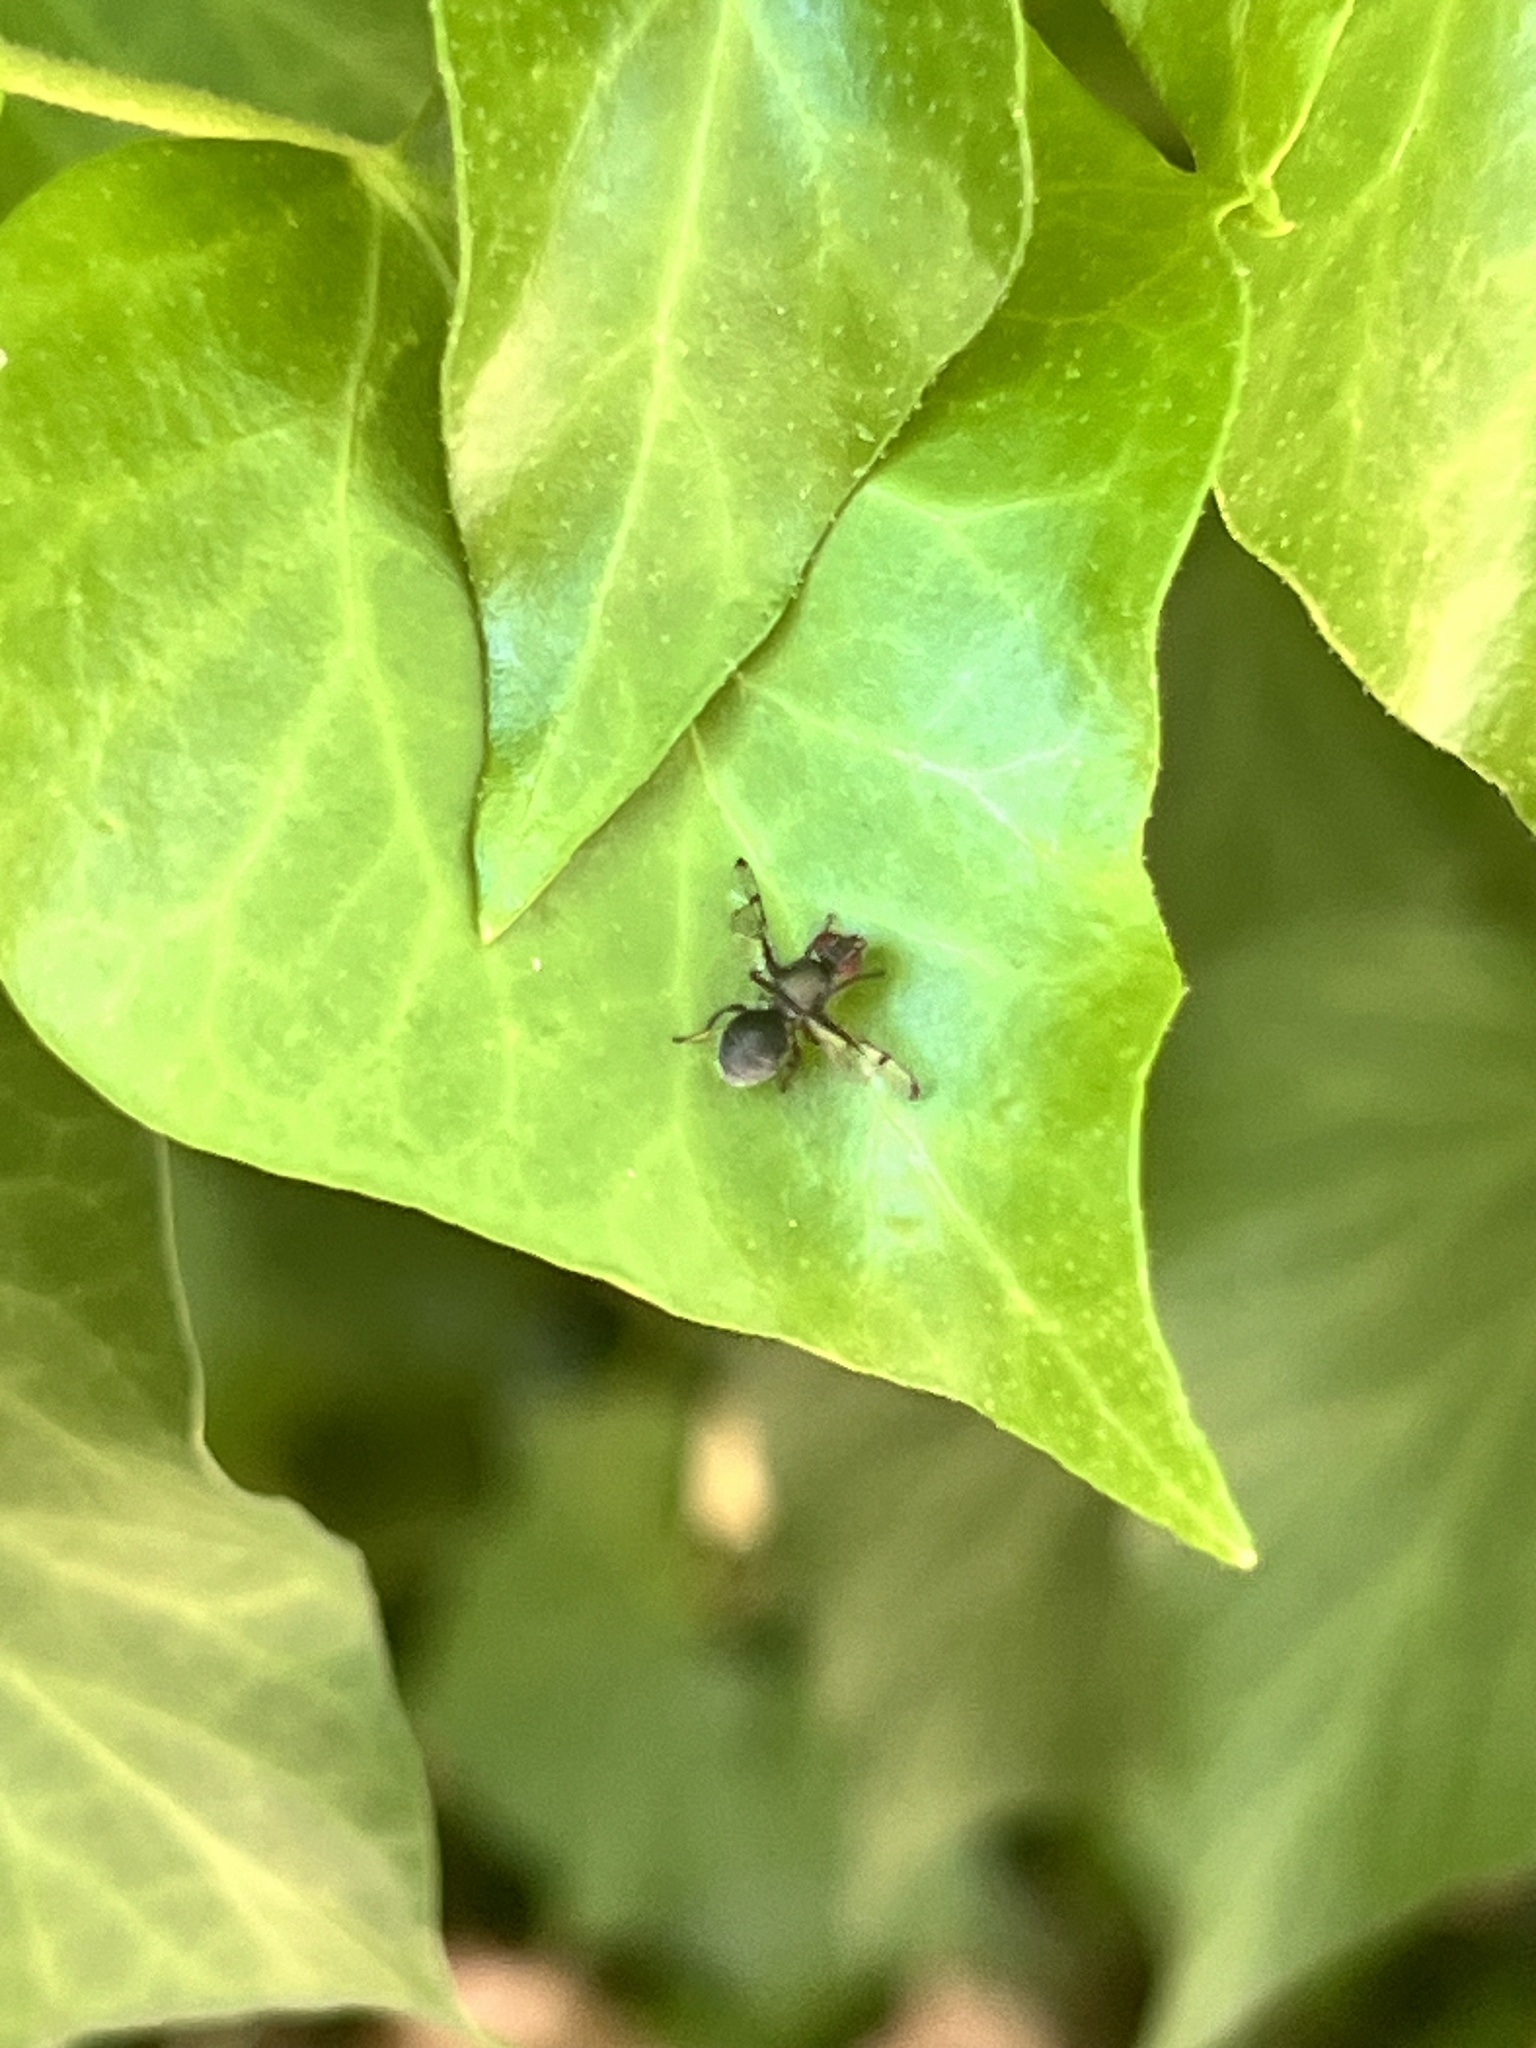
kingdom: Animalia
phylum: Arthropoda
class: Insecta
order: Diptera
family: Platystomatidae
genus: Pogonortalis
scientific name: Pogonortalis doclea
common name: Boatman fly
